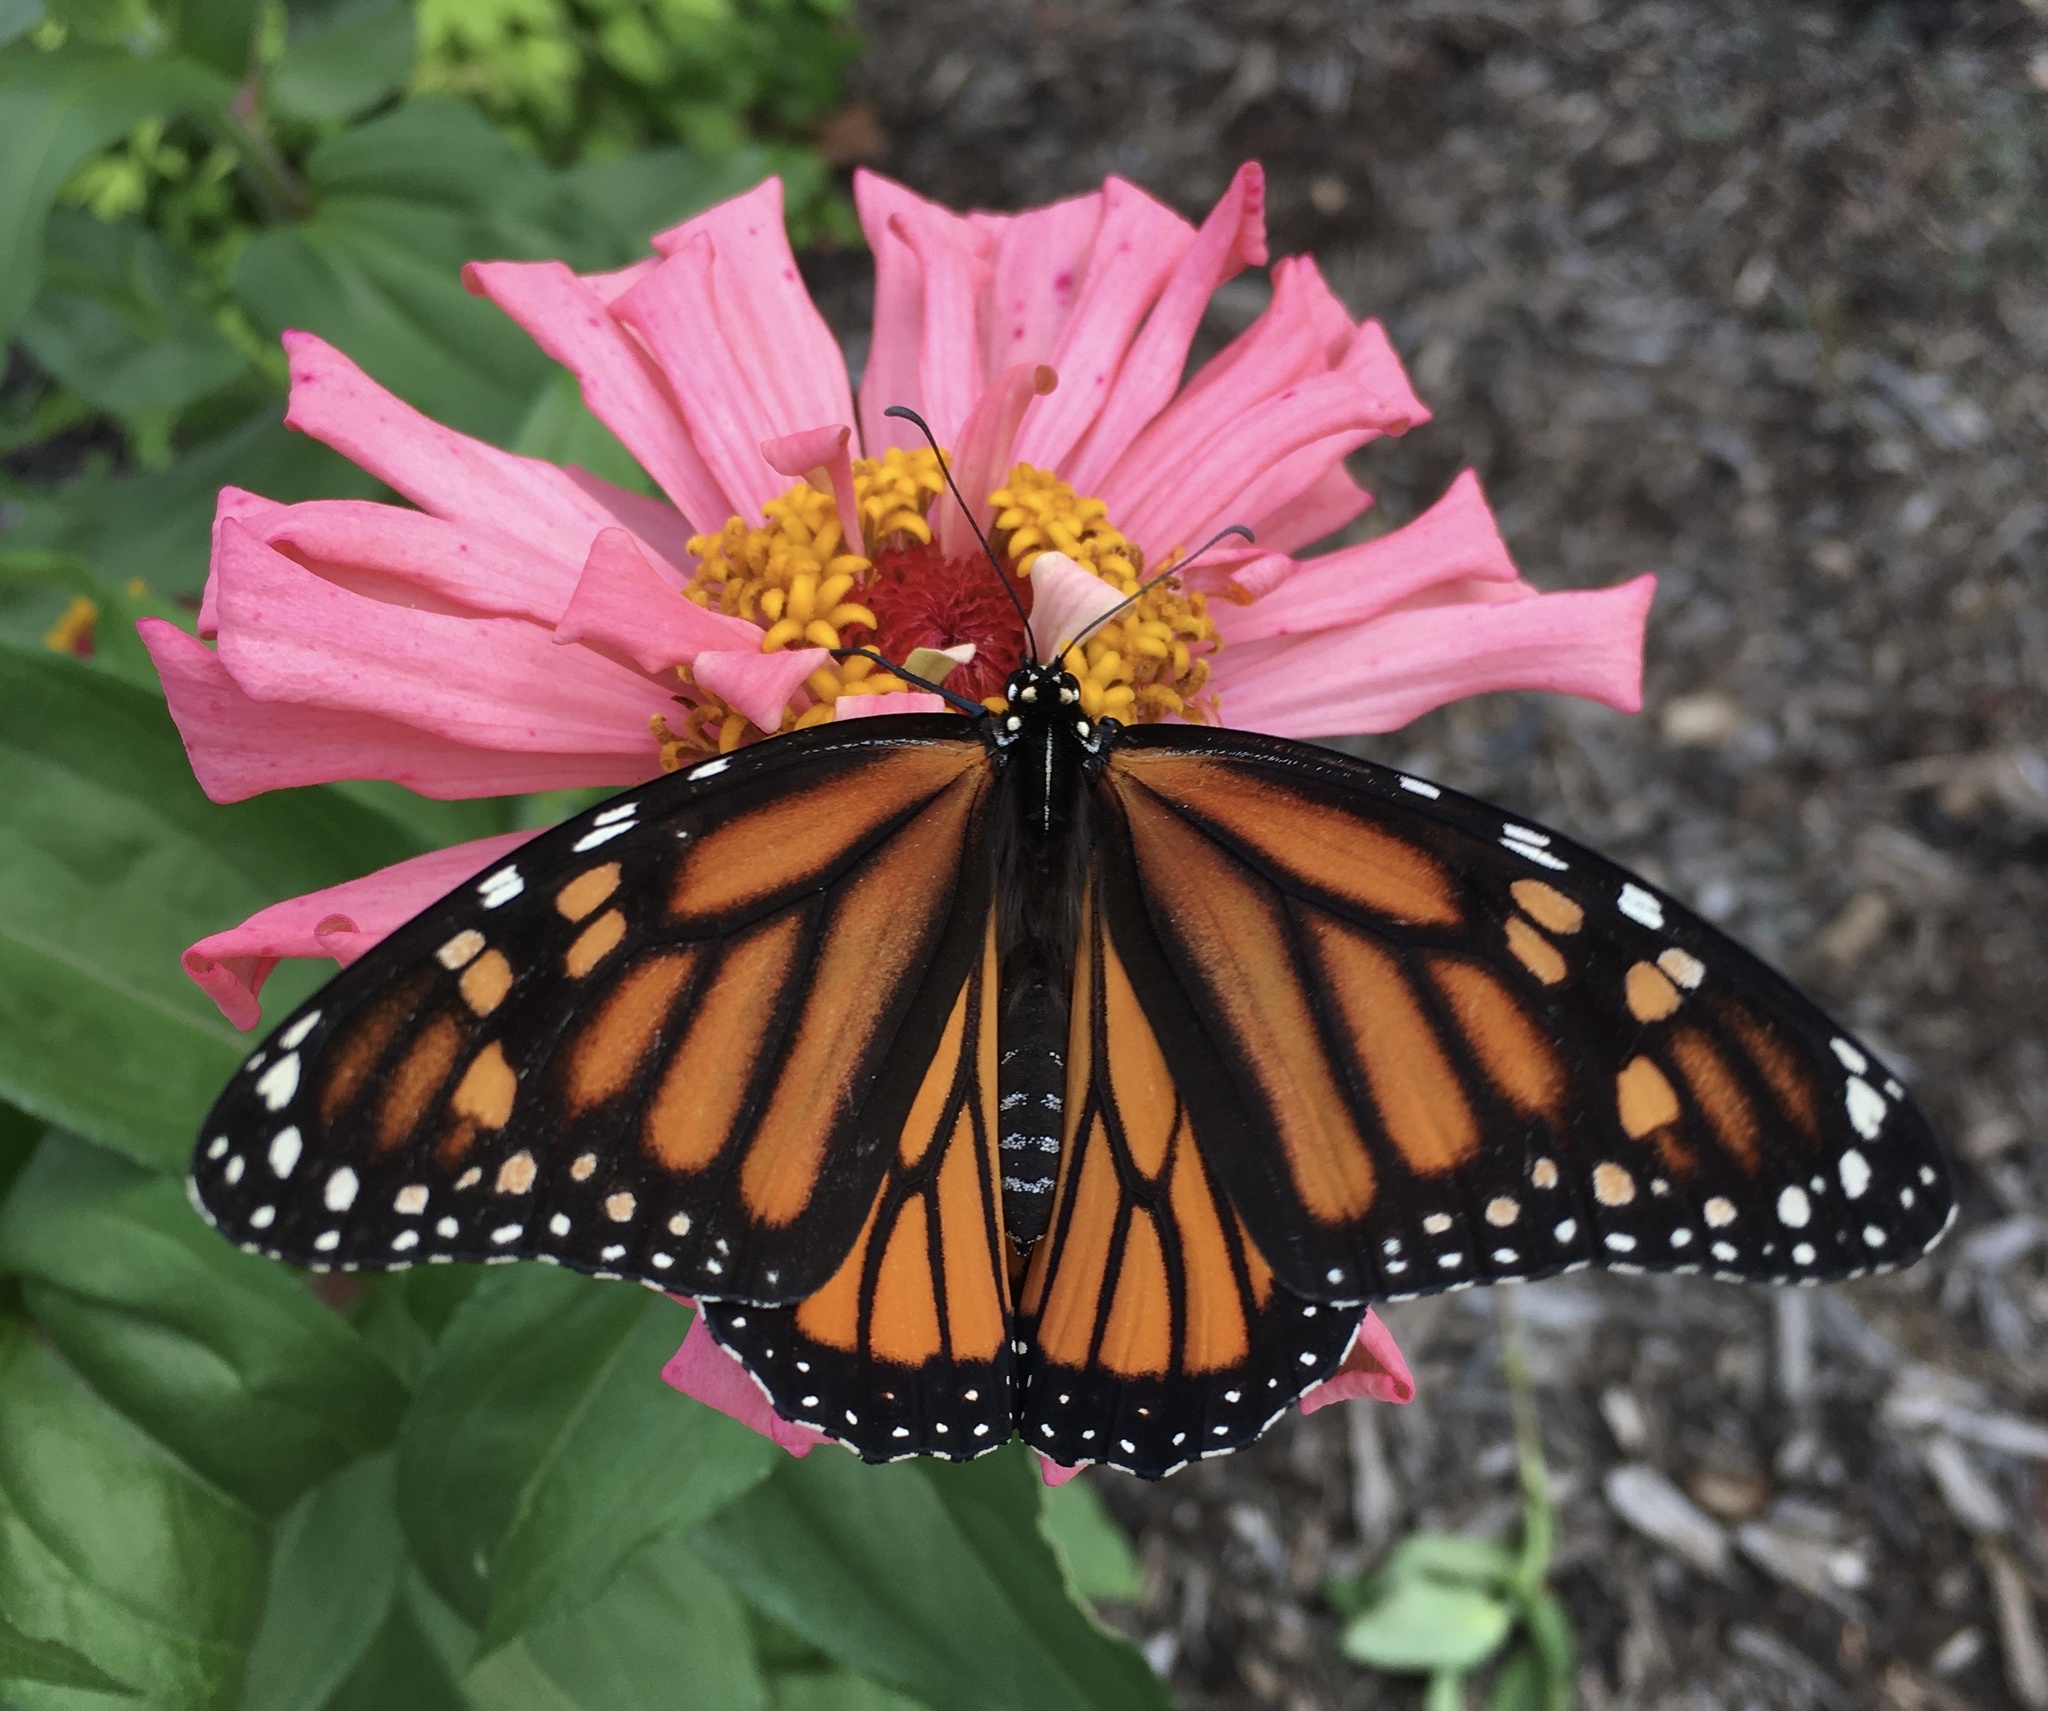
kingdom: Animalia
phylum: Arthropoda
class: Insecta
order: Lepidoptera
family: Nymphalidae
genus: Danaus
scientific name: Danaus plexippus
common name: Monarch
